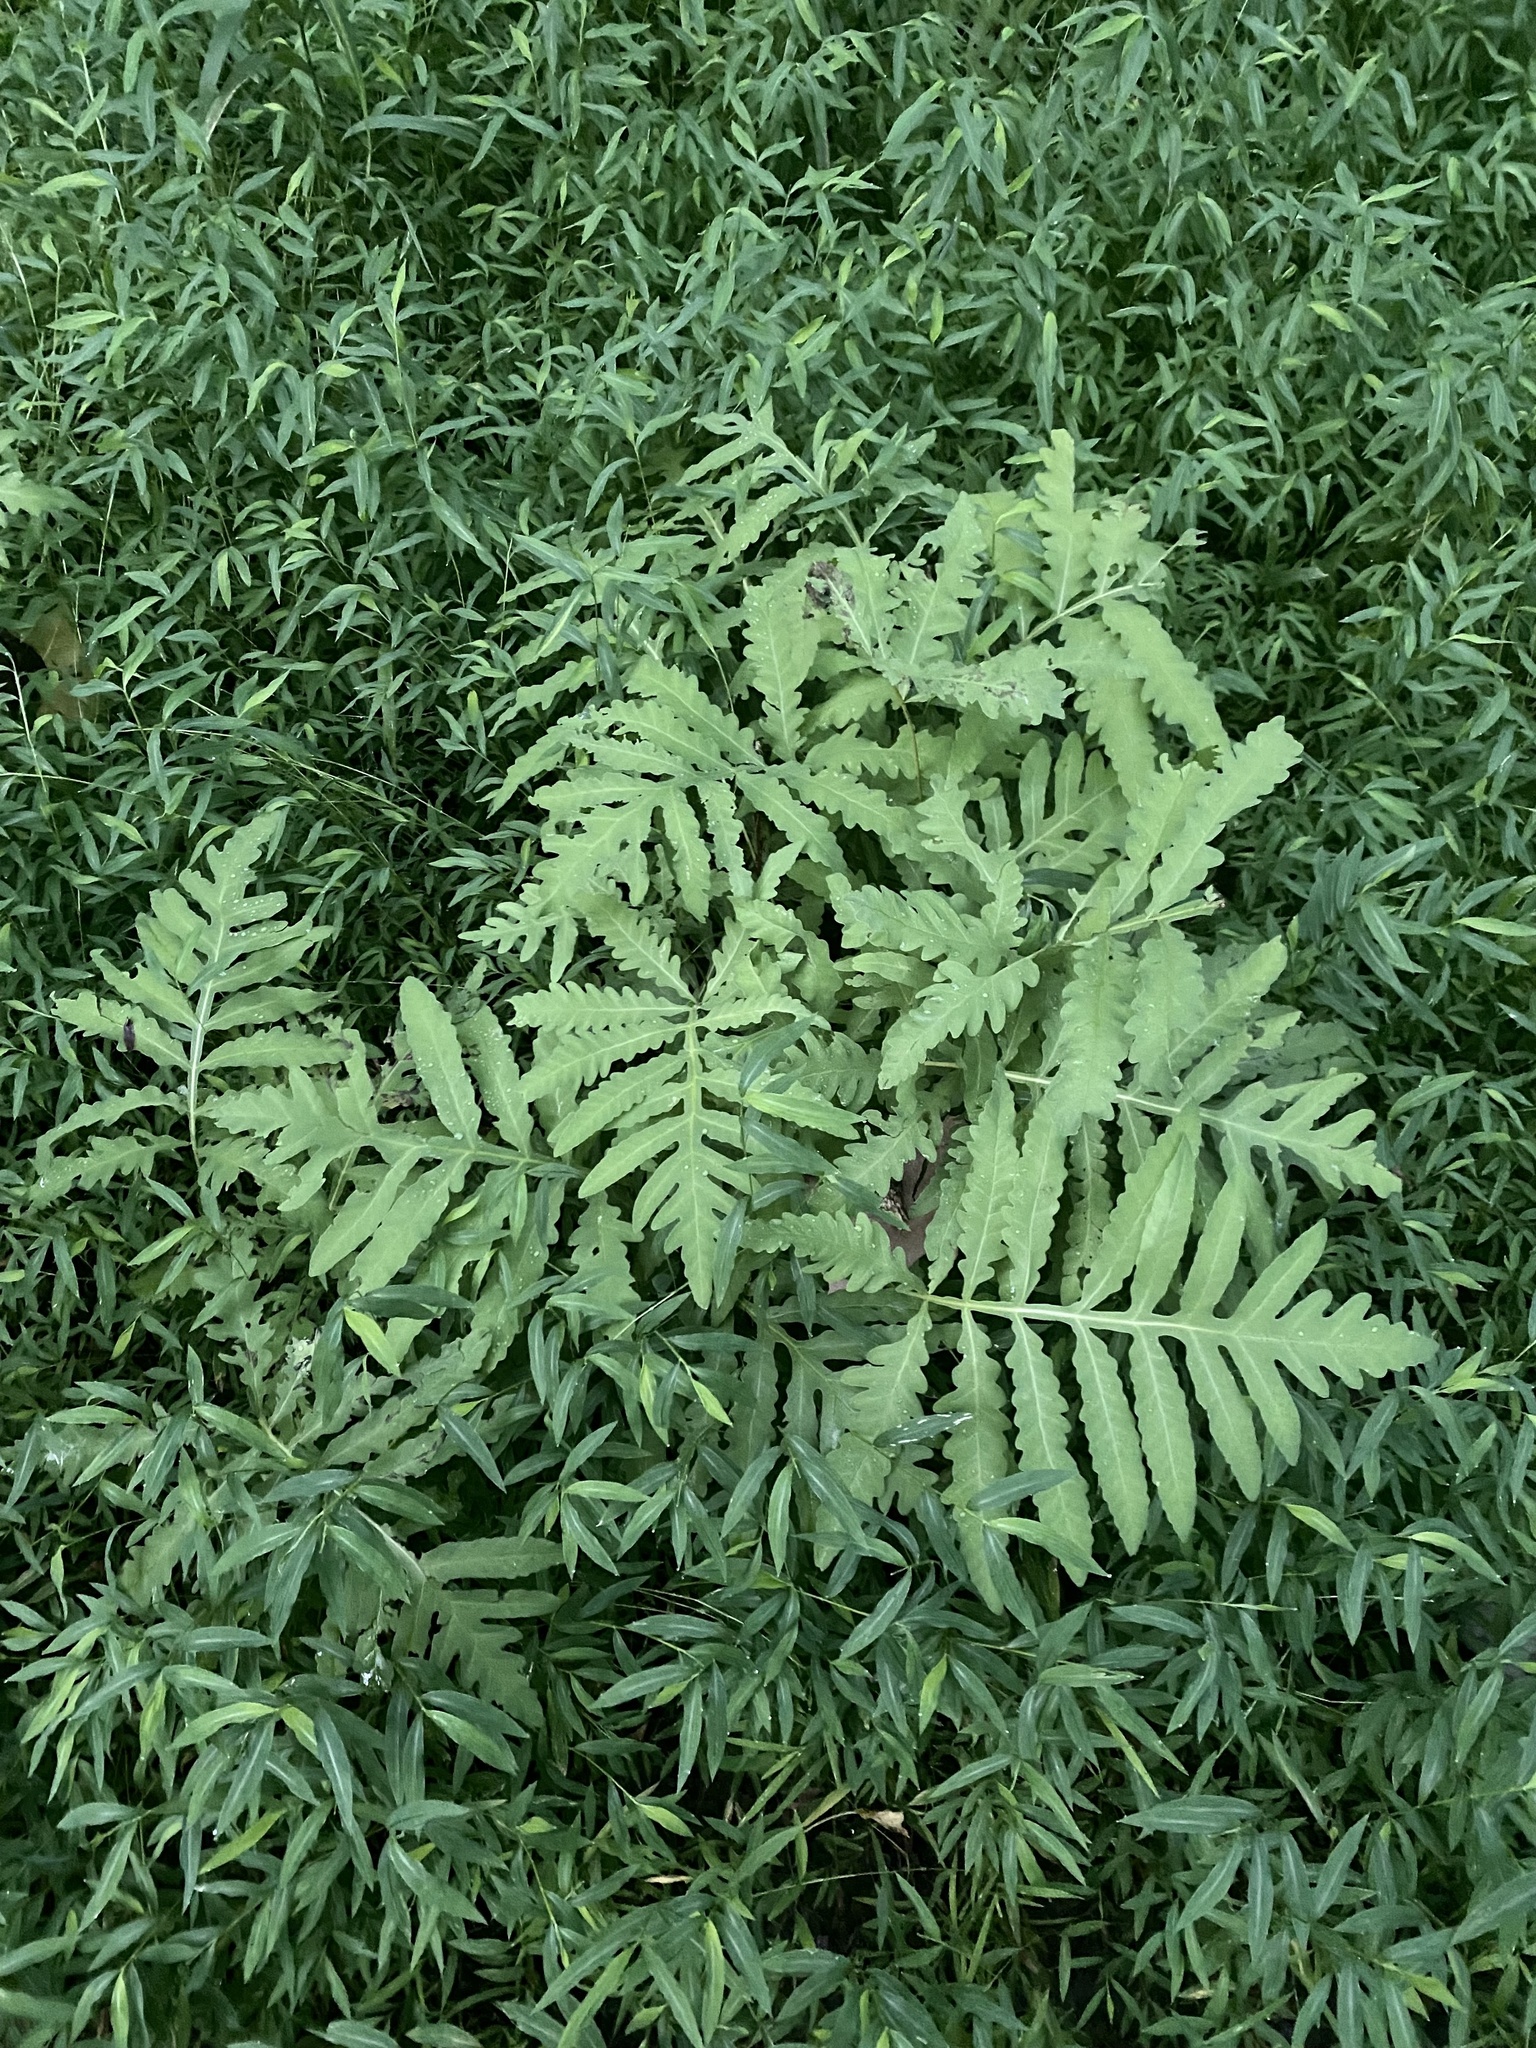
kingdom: Plantae
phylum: Tracheophyta
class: Polypodiopsida
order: Polypodiales
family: Onocleaceae
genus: Onoclea
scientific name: Onoclea sensibilis
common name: Sensitive fern
